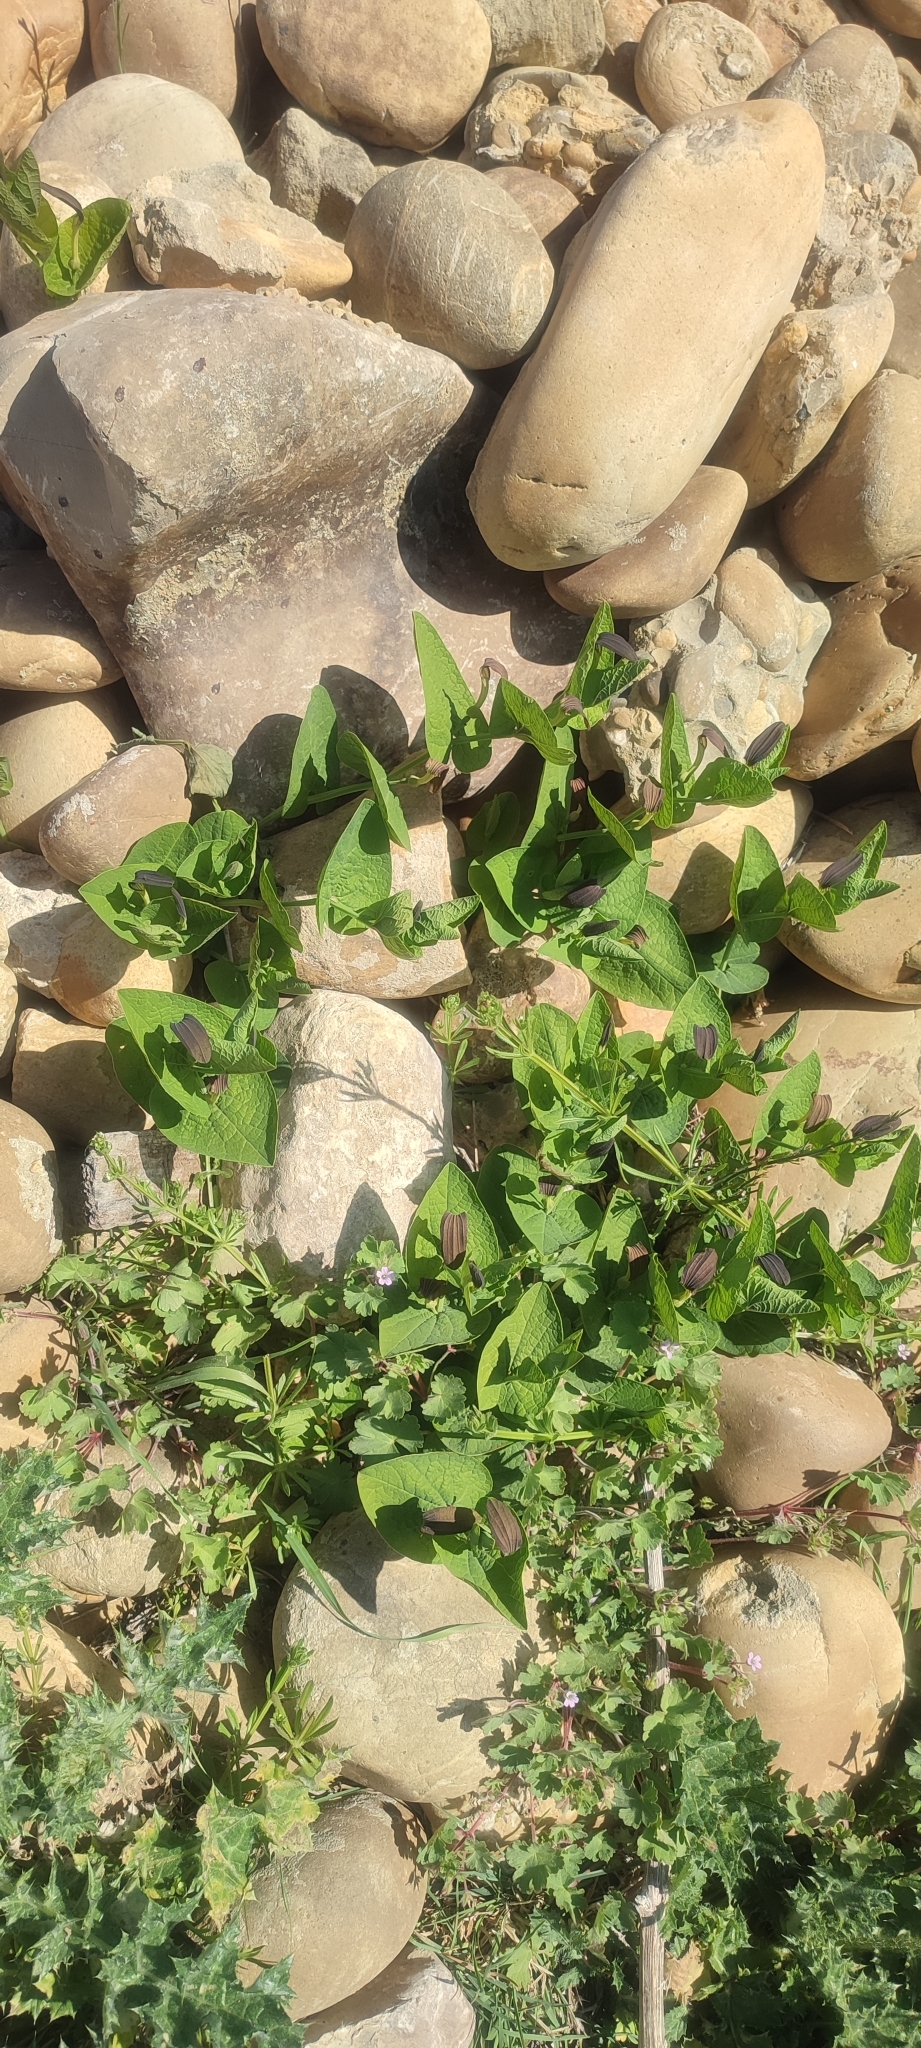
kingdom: Plantae
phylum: Tracheophyta
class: Magnoliopsida
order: Piperales
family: Aristolochiaceae
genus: Aristolochia
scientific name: Aristolochia rotunda
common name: Smearwort
